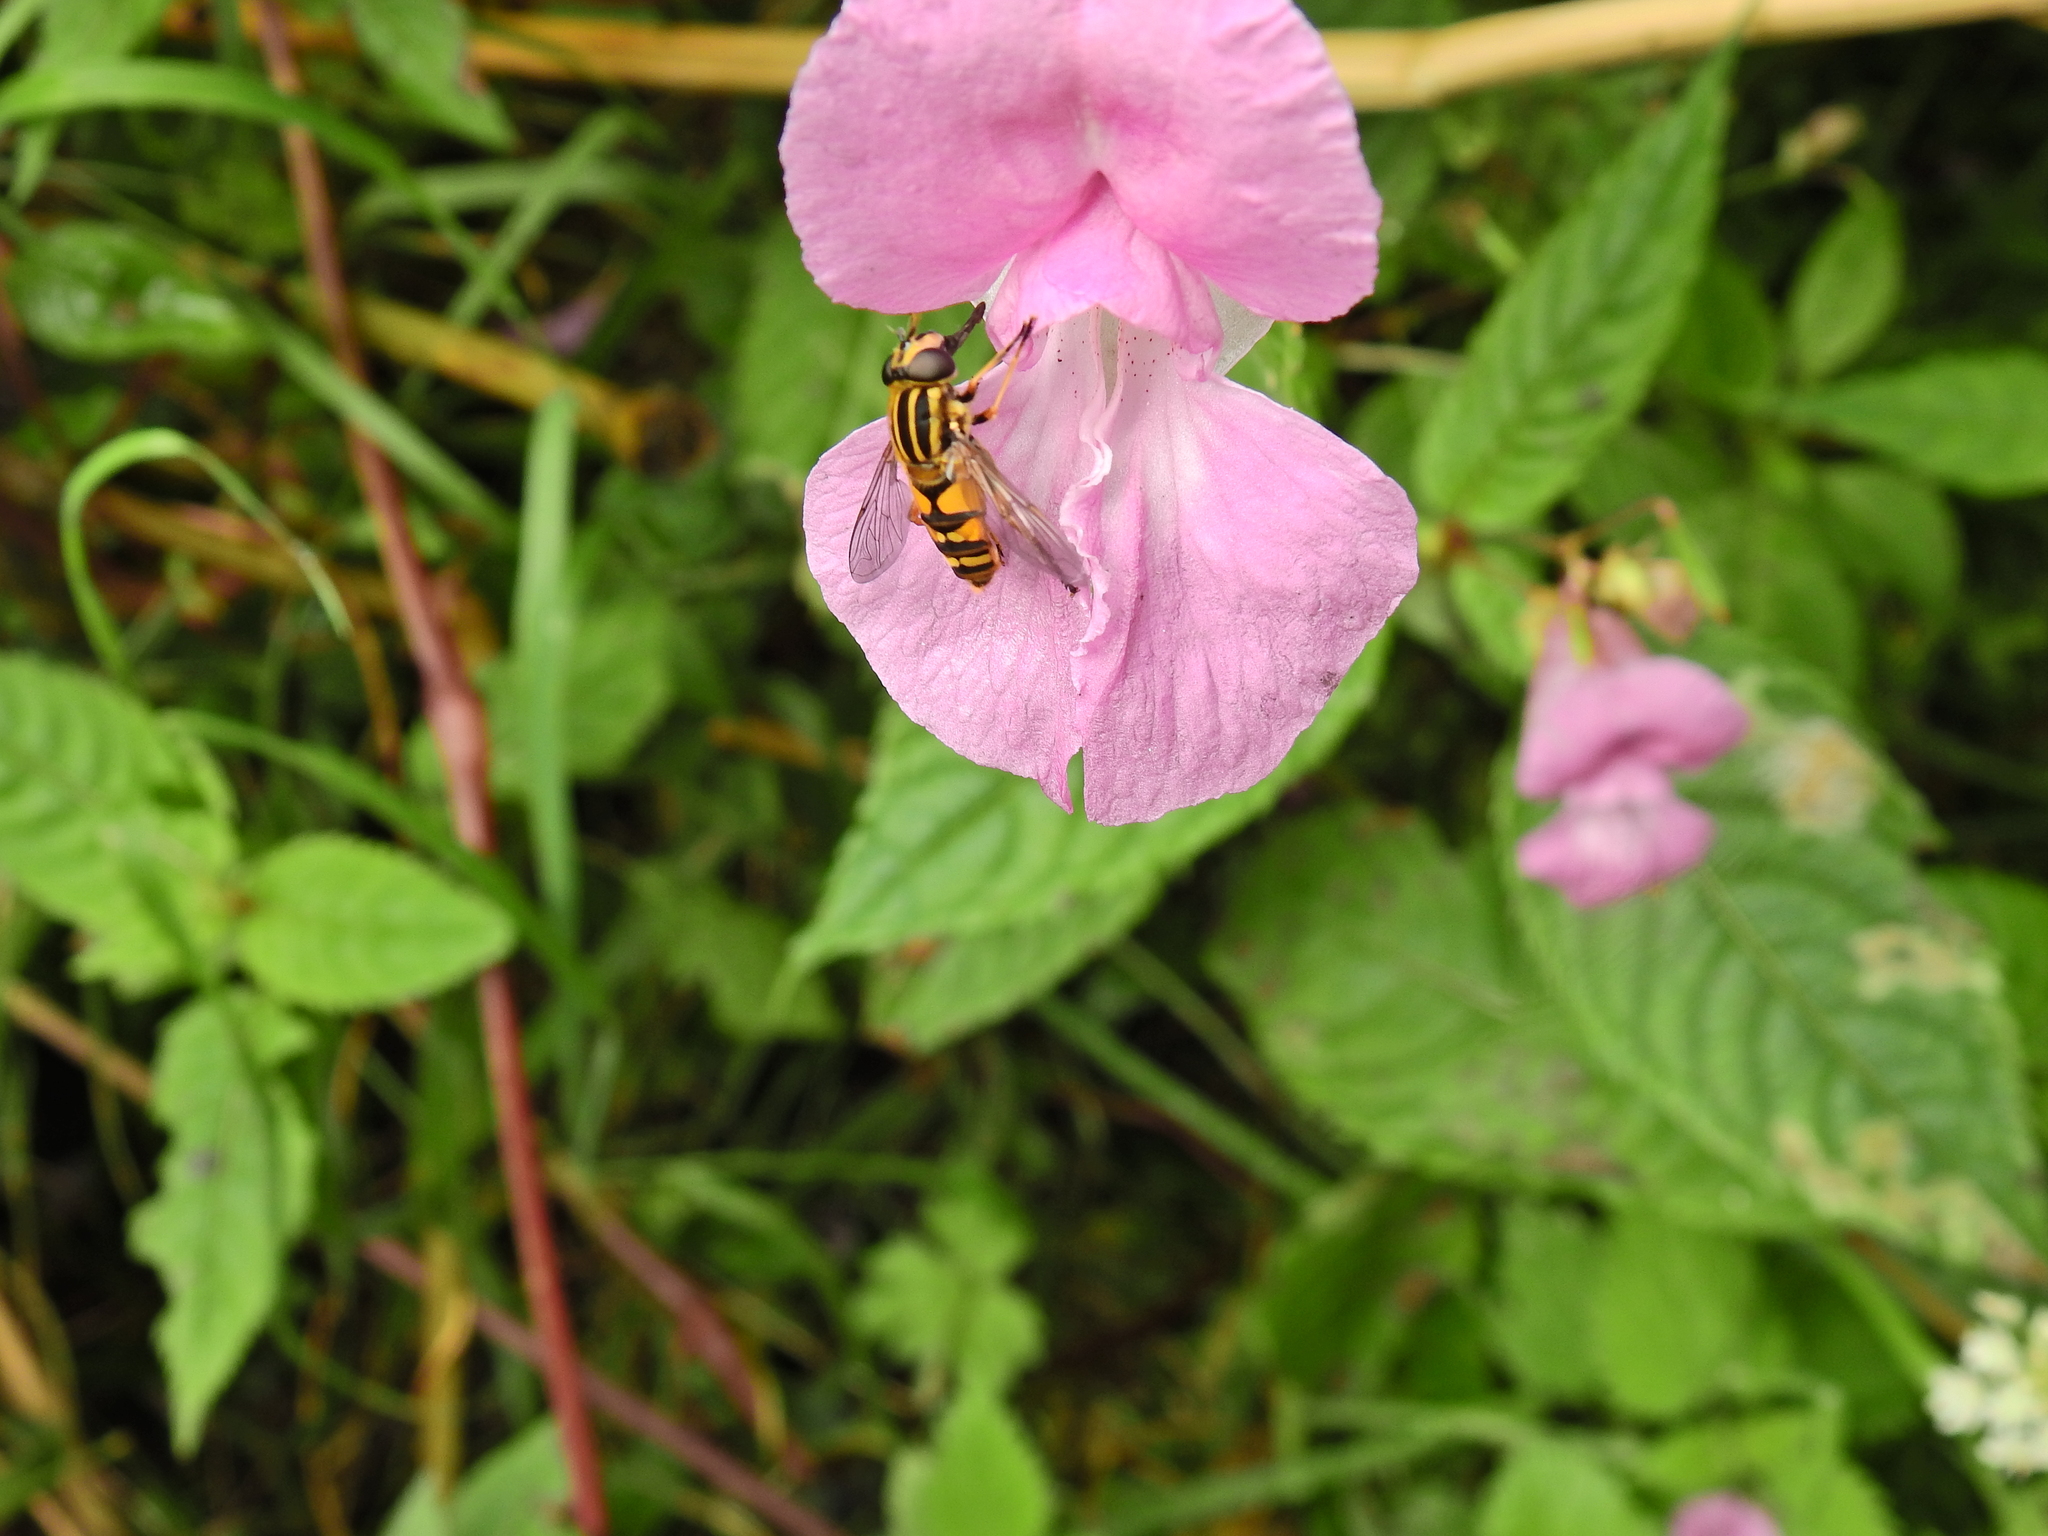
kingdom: Animalia
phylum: Arthropoda
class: Insecta
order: Diptera
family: Syrphidae
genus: Helophilus
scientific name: Helophilus pendulus
